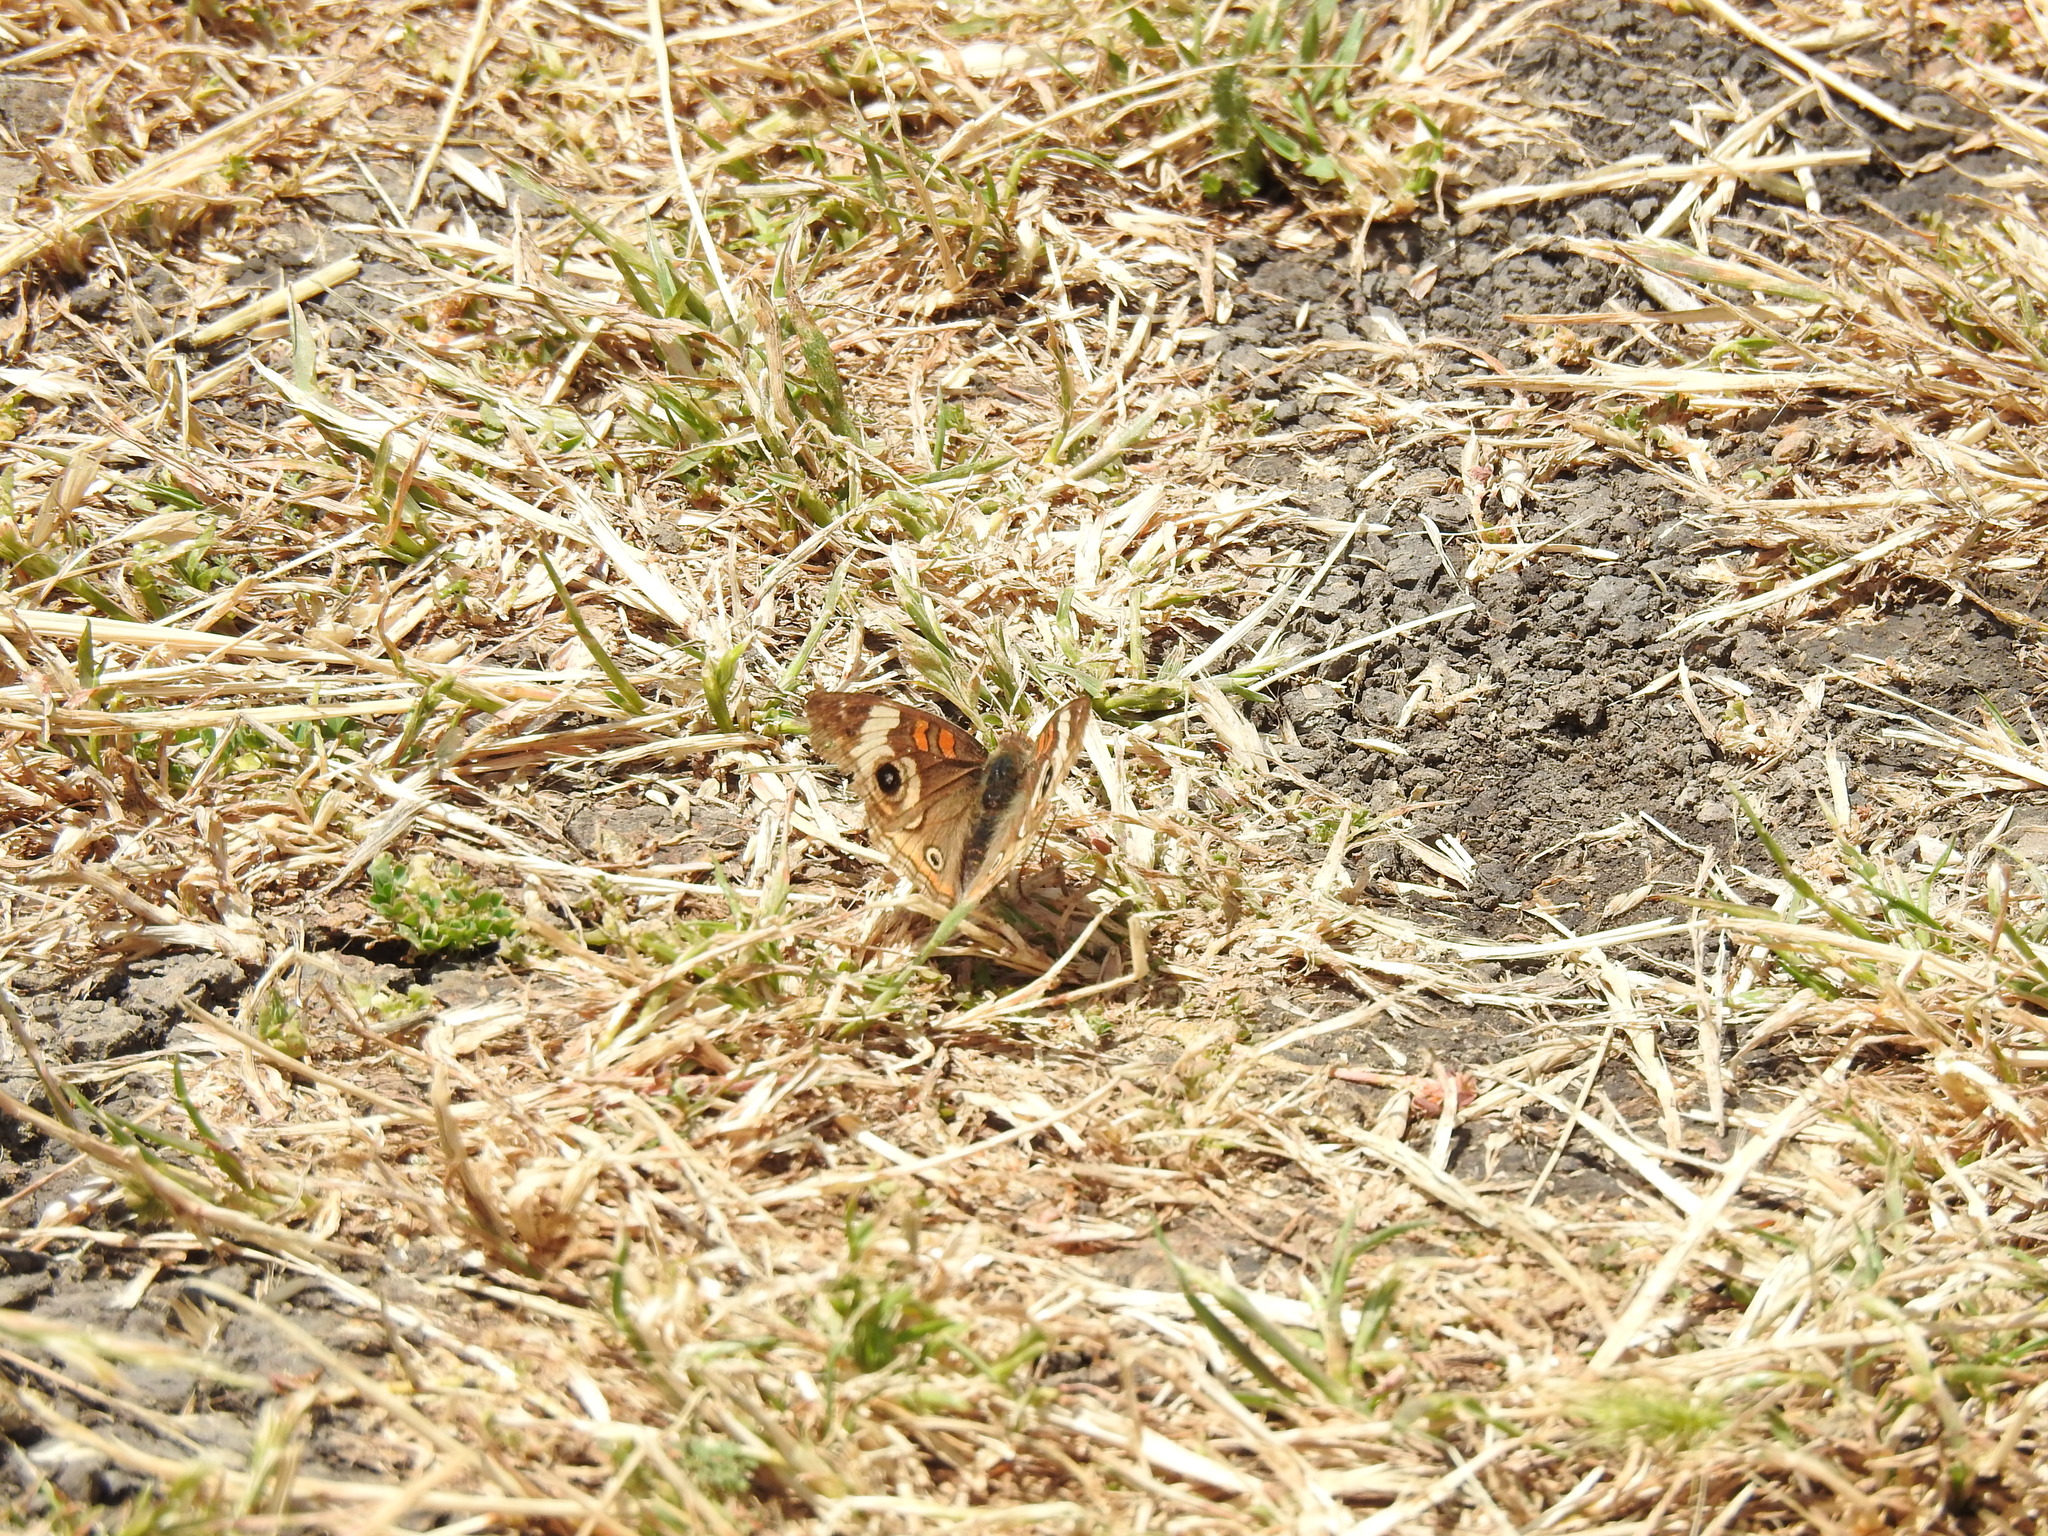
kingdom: Animalia
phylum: Arthropoda
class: Insecta
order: Lepidoptera
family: Nymphalidae
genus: Junonia
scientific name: Junonia grisea
